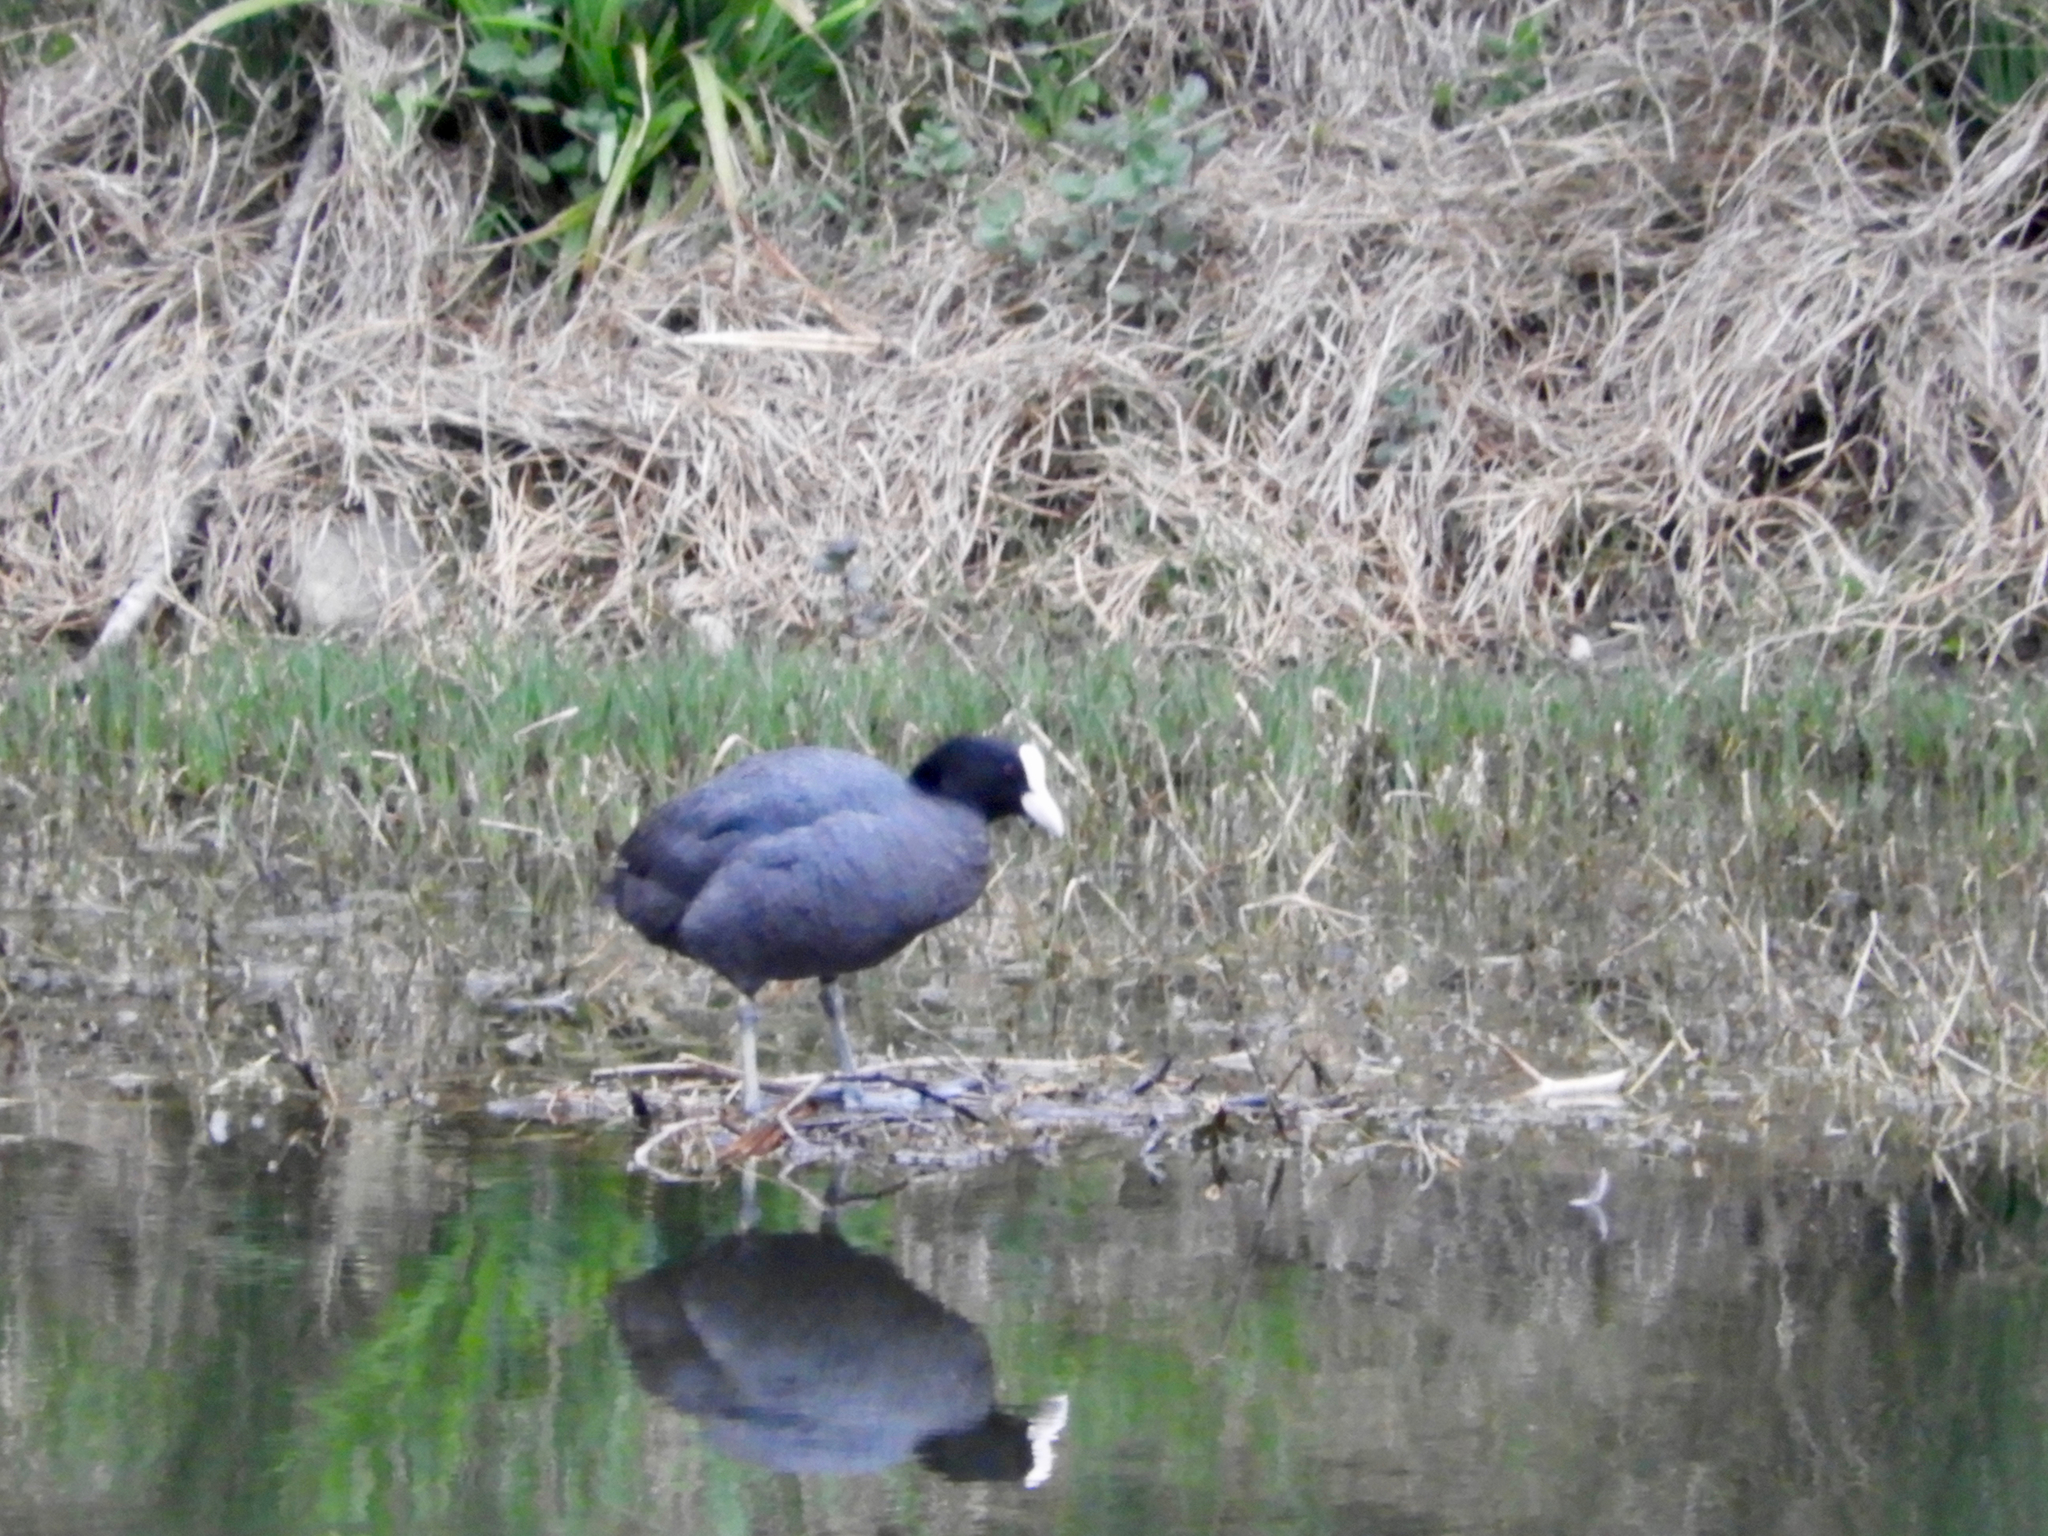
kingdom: Animalia
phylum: Chordata
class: Aves
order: Gruiformes
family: Rallidae
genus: Fulica
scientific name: Fulica atra
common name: Eurasian coot
